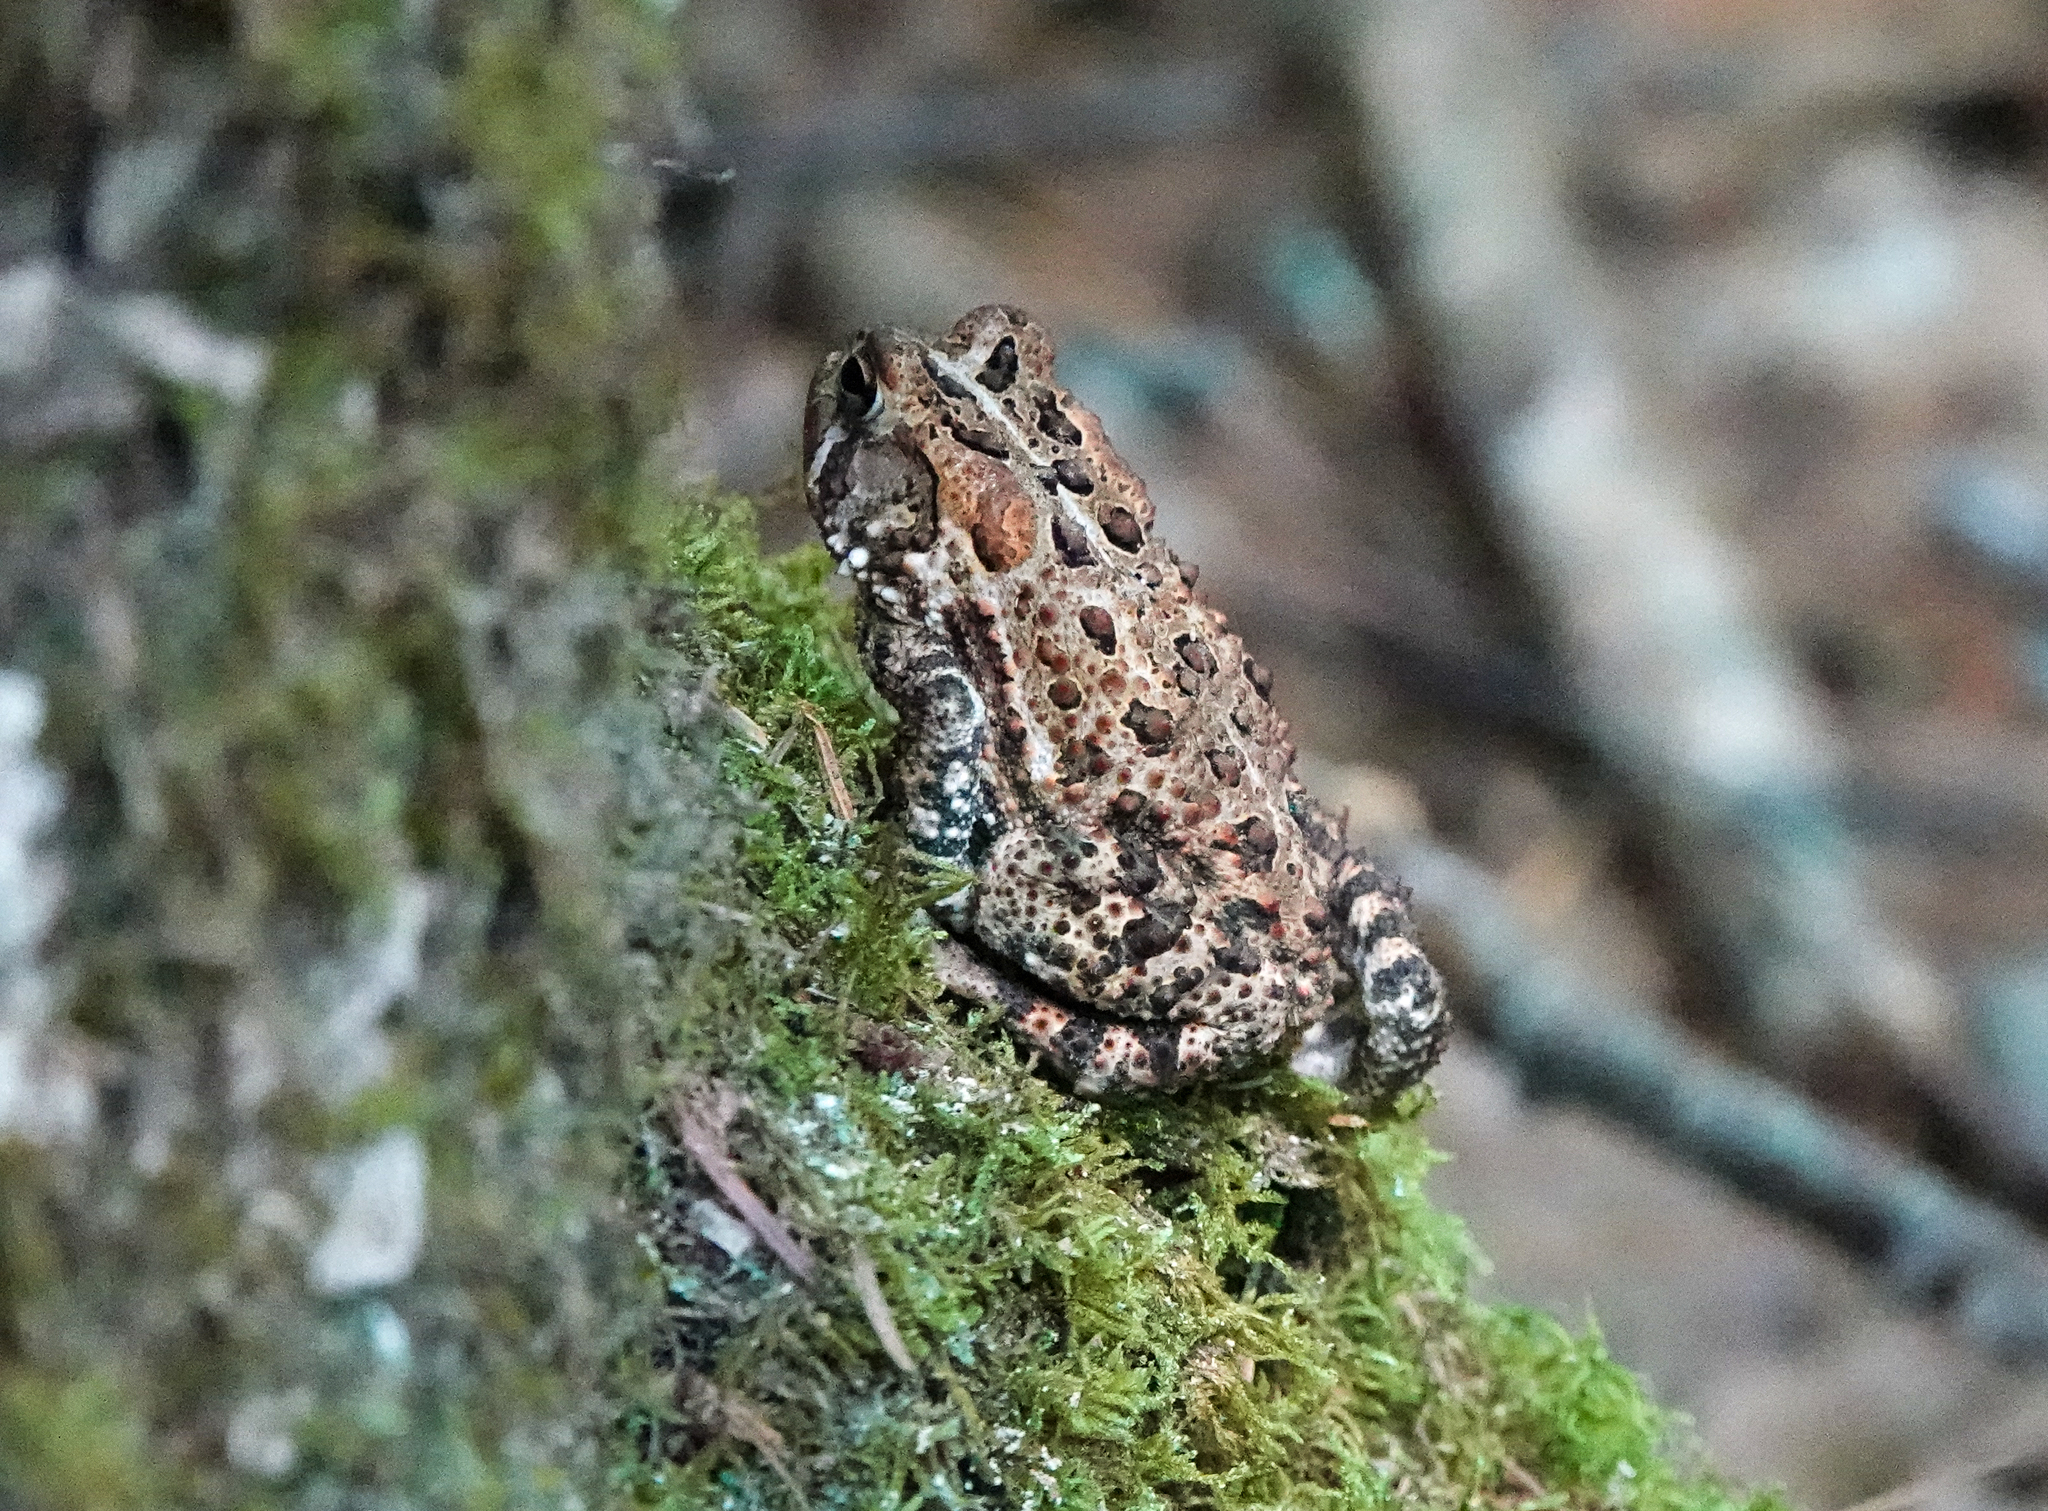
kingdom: Animalia
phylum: Chordata
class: Amphibia
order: Anura
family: Bufonidae
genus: Anaxyrus
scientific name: Anaxyrus americanus
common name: American toad
